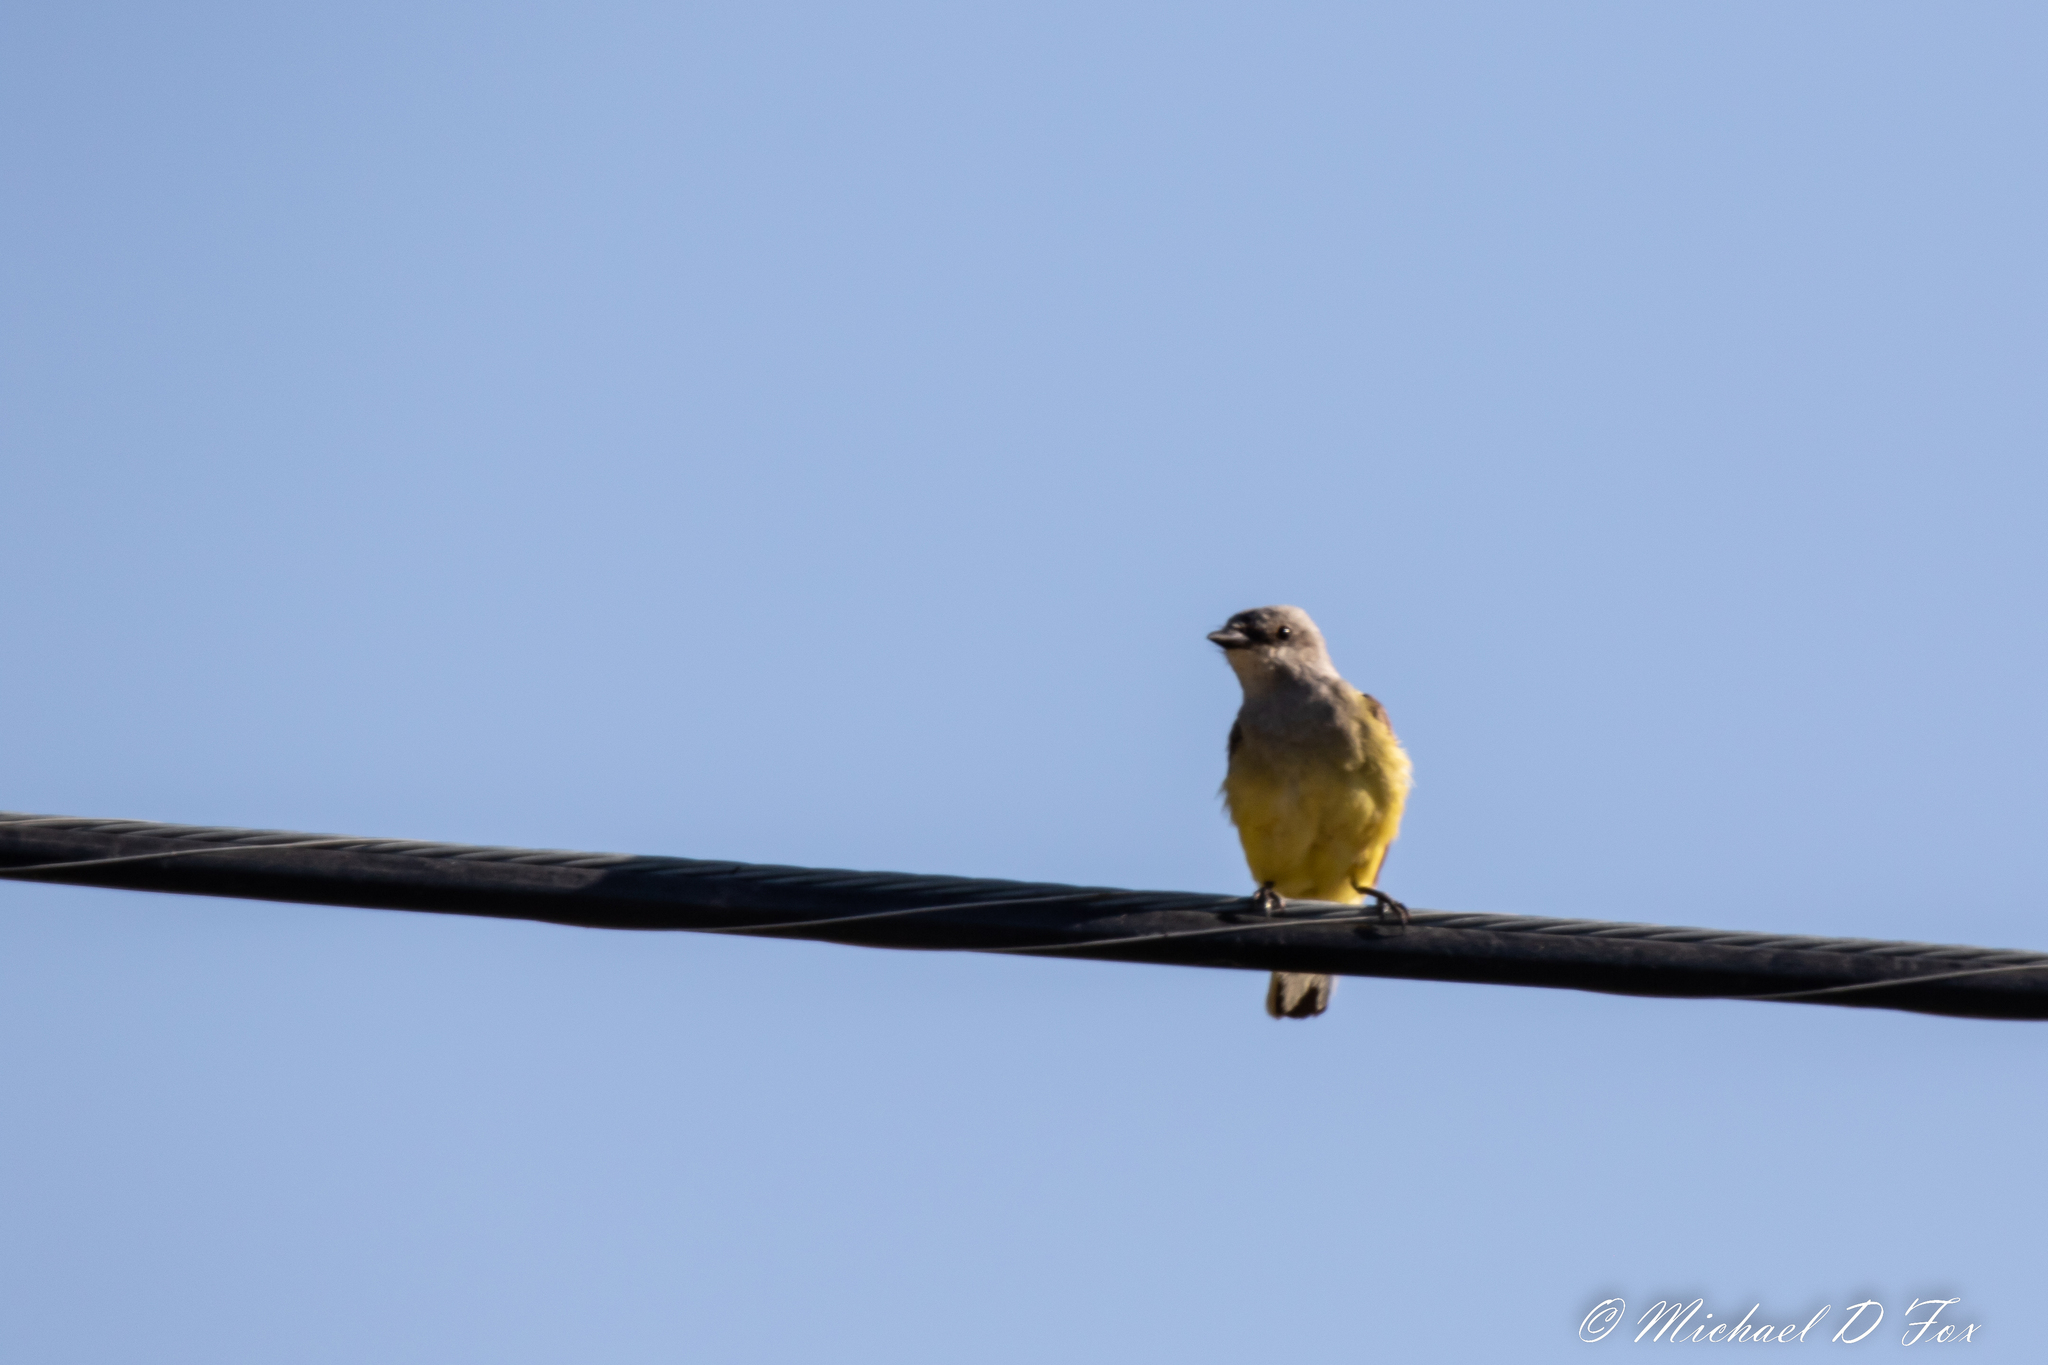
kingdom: Animalia
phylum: Chordata
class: Aves
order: Passeriformes
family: Tyrannidae
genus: Tyrannus
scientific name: Tyrannus verticalis
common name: Western kingbird
